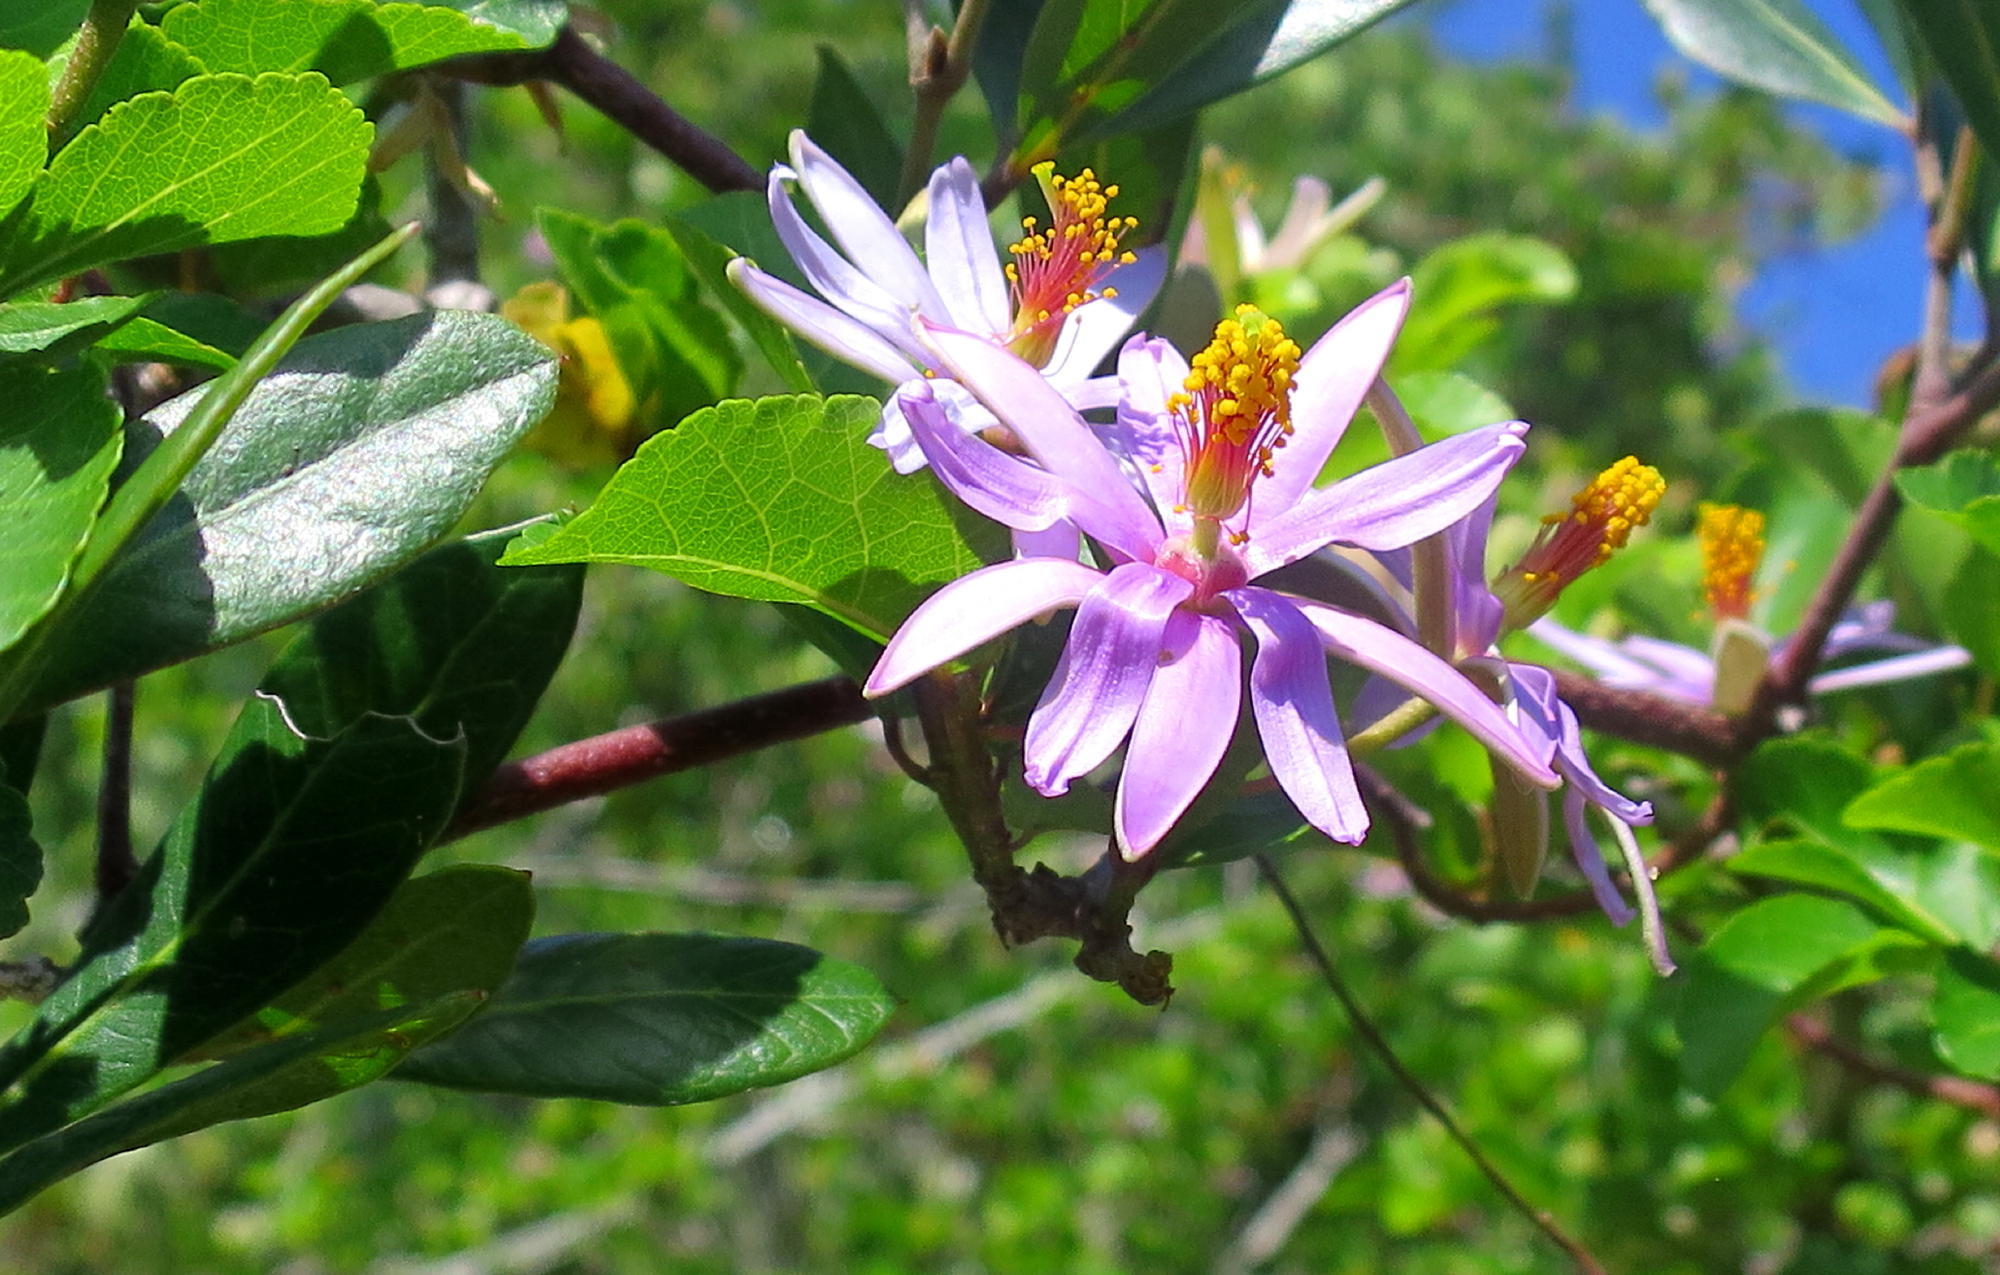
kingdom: Plantae
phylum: Tracheophyta
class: Magnoliopsida
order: Malvales
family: Malvaceae
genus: Grewia
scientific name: Grewia occidentalis
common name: Crossberry
